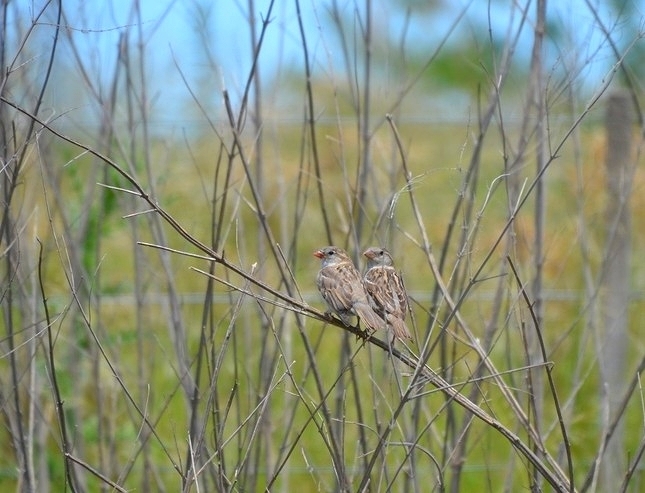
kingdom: Animalia
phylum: Chordata
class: Aves
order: Passeriformes
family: Passeridae
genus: Passer
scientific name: Passer domesticus
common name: House sparrow
